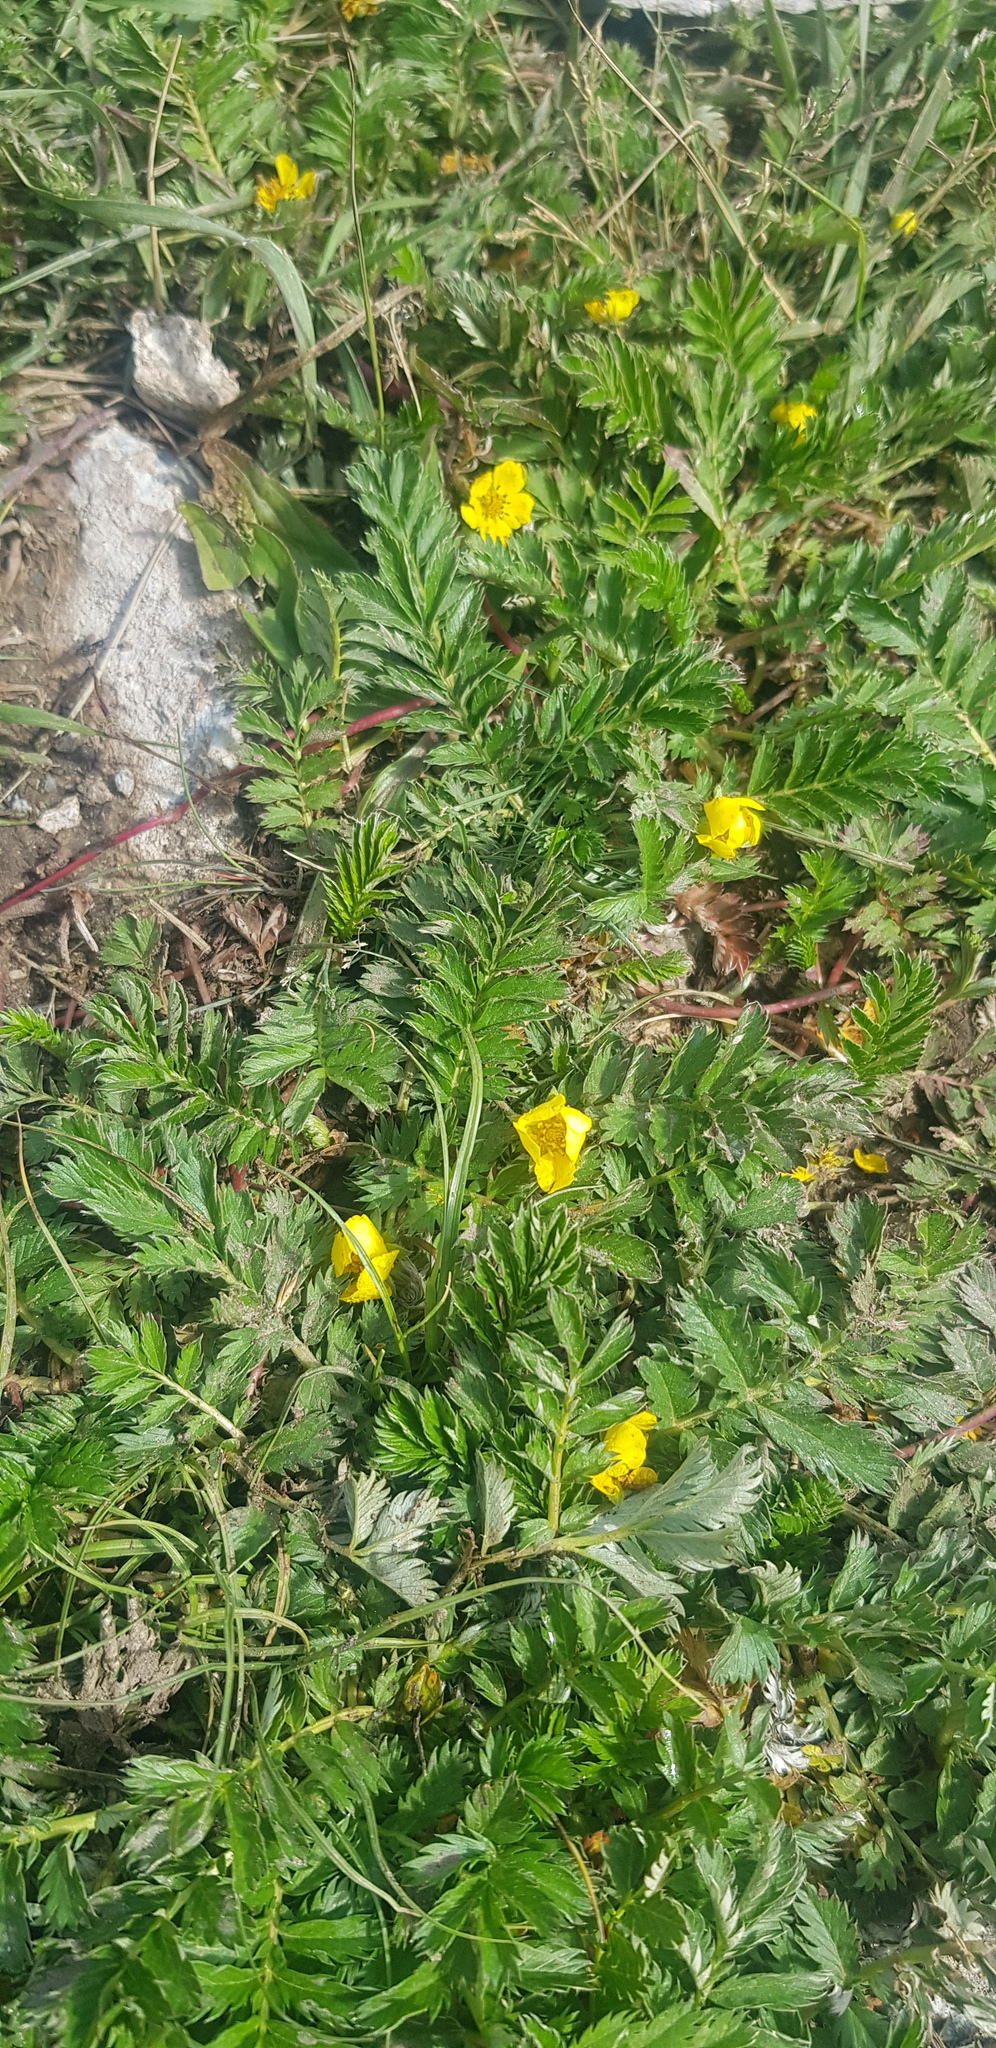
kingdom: Plantae
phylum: Tracheophyta
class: Magnoliopsida
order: Rosales
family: Rosaceae
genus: Argentina
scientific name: Argentina anserina
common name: Common silverweed
